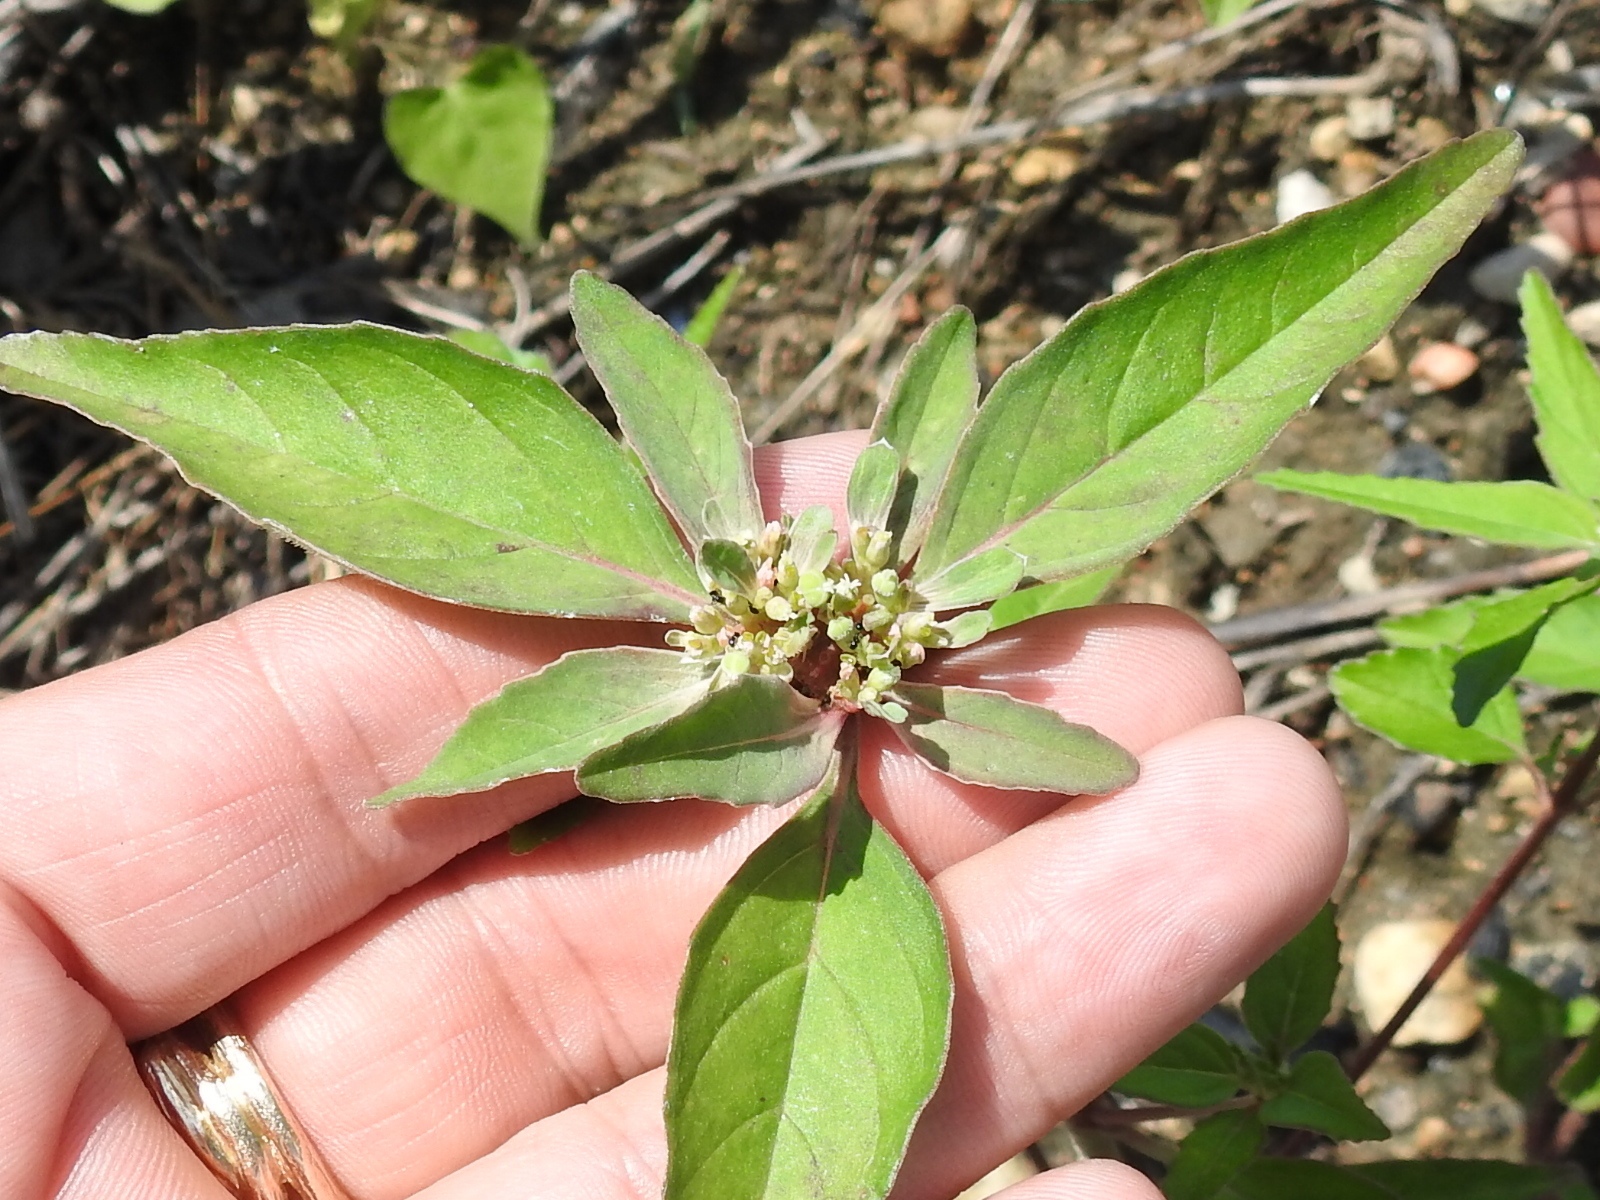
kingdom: Plantae
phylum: Tracheophyta
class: Magnoliopsida
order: Malpighiales
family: Euphorbiaceae
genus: Euphorbia
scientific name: Euphorbia dentata
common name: Dentate spurge
